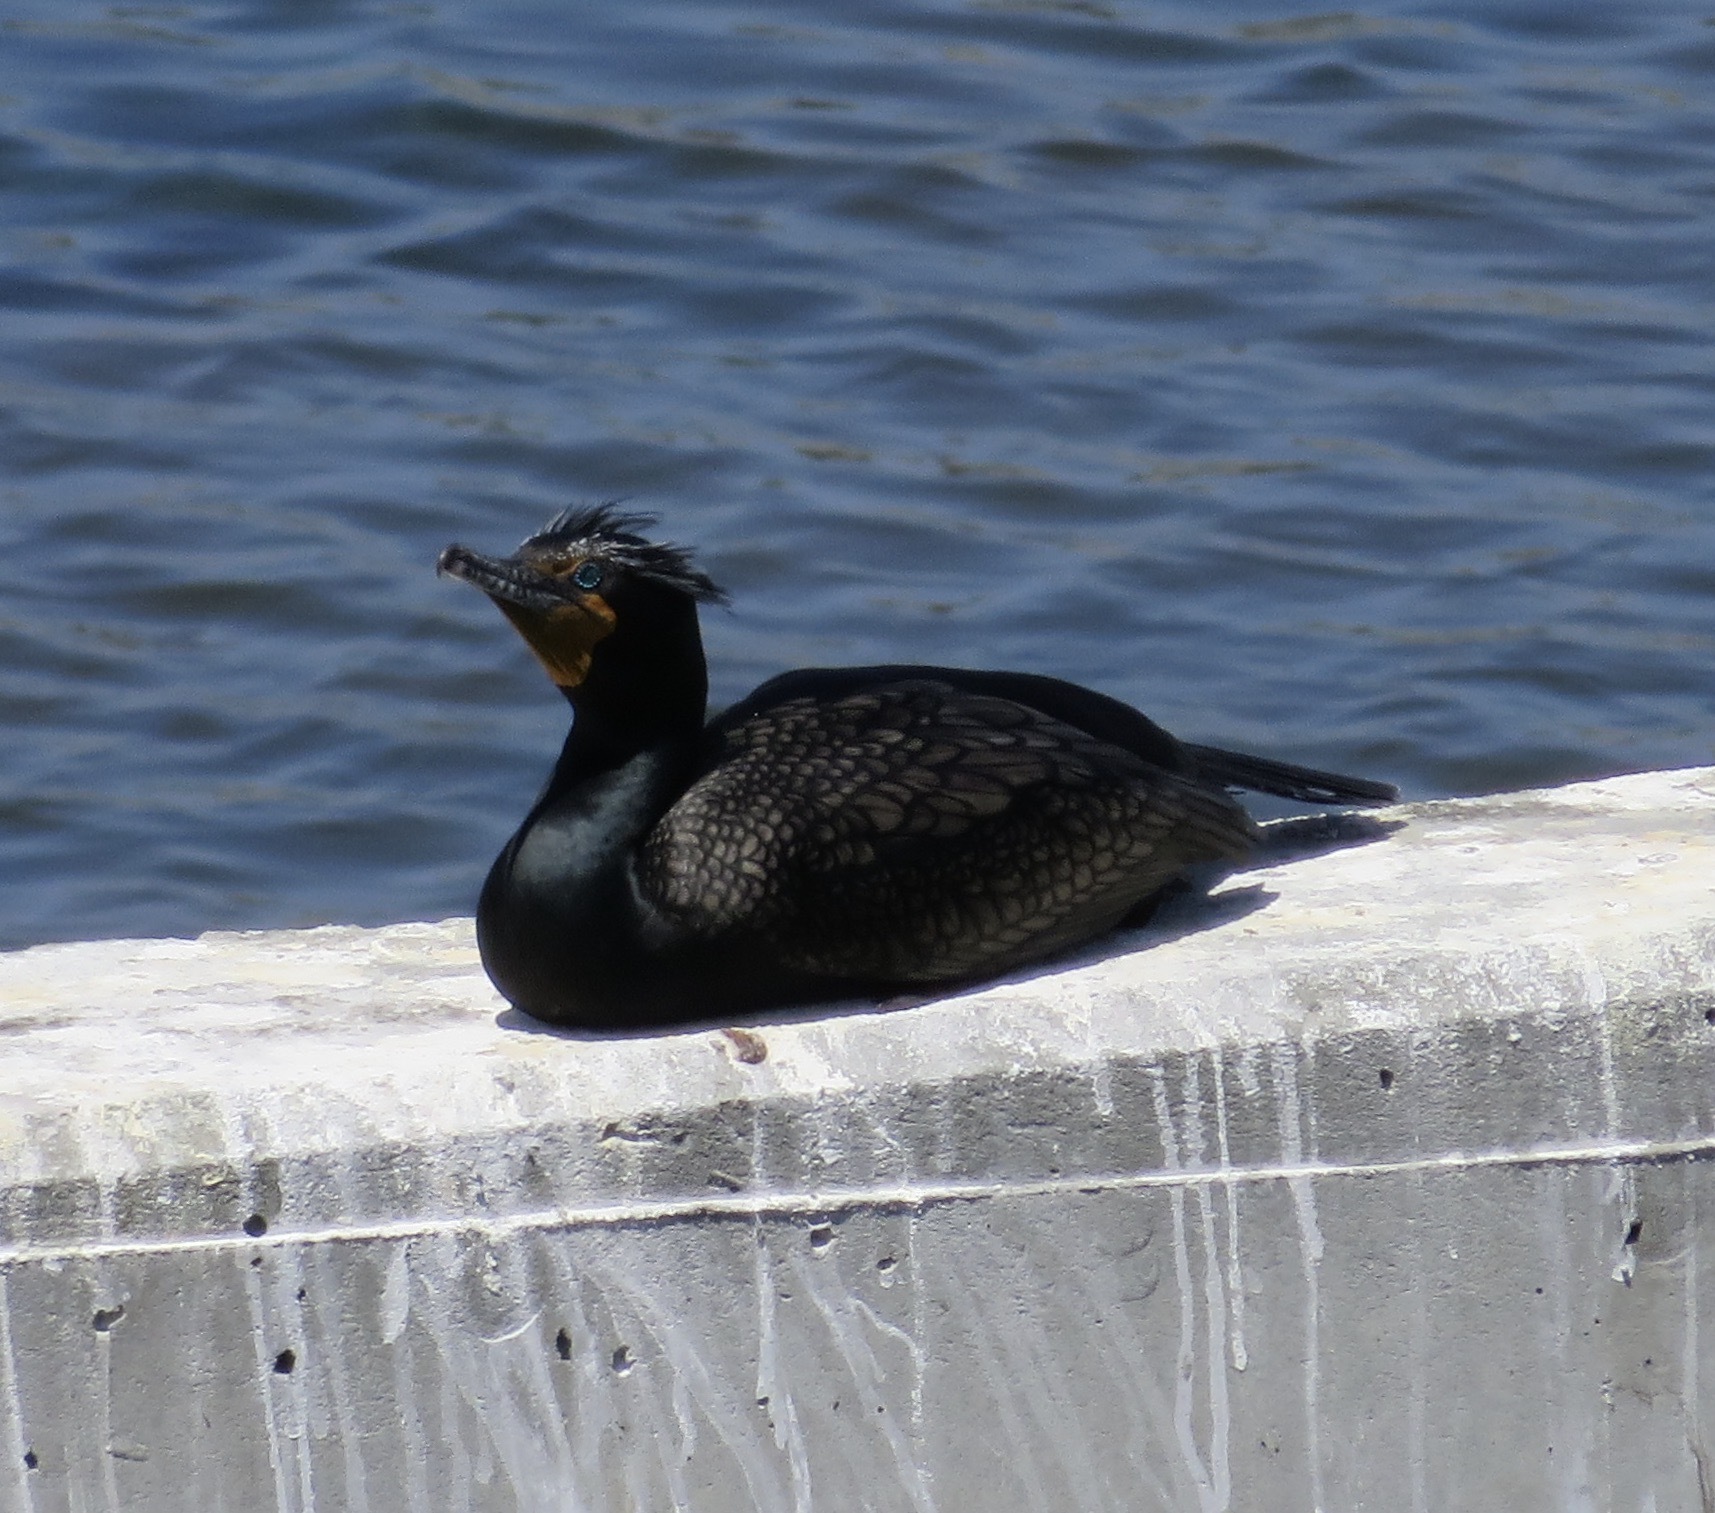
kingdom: Animalia
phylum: Chordata
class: Aves
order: Suliformes
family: Phalacrocoracidae
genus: Phalacrocorax
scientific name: Phalacrocorax auritus
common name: Double-crested cormorant
